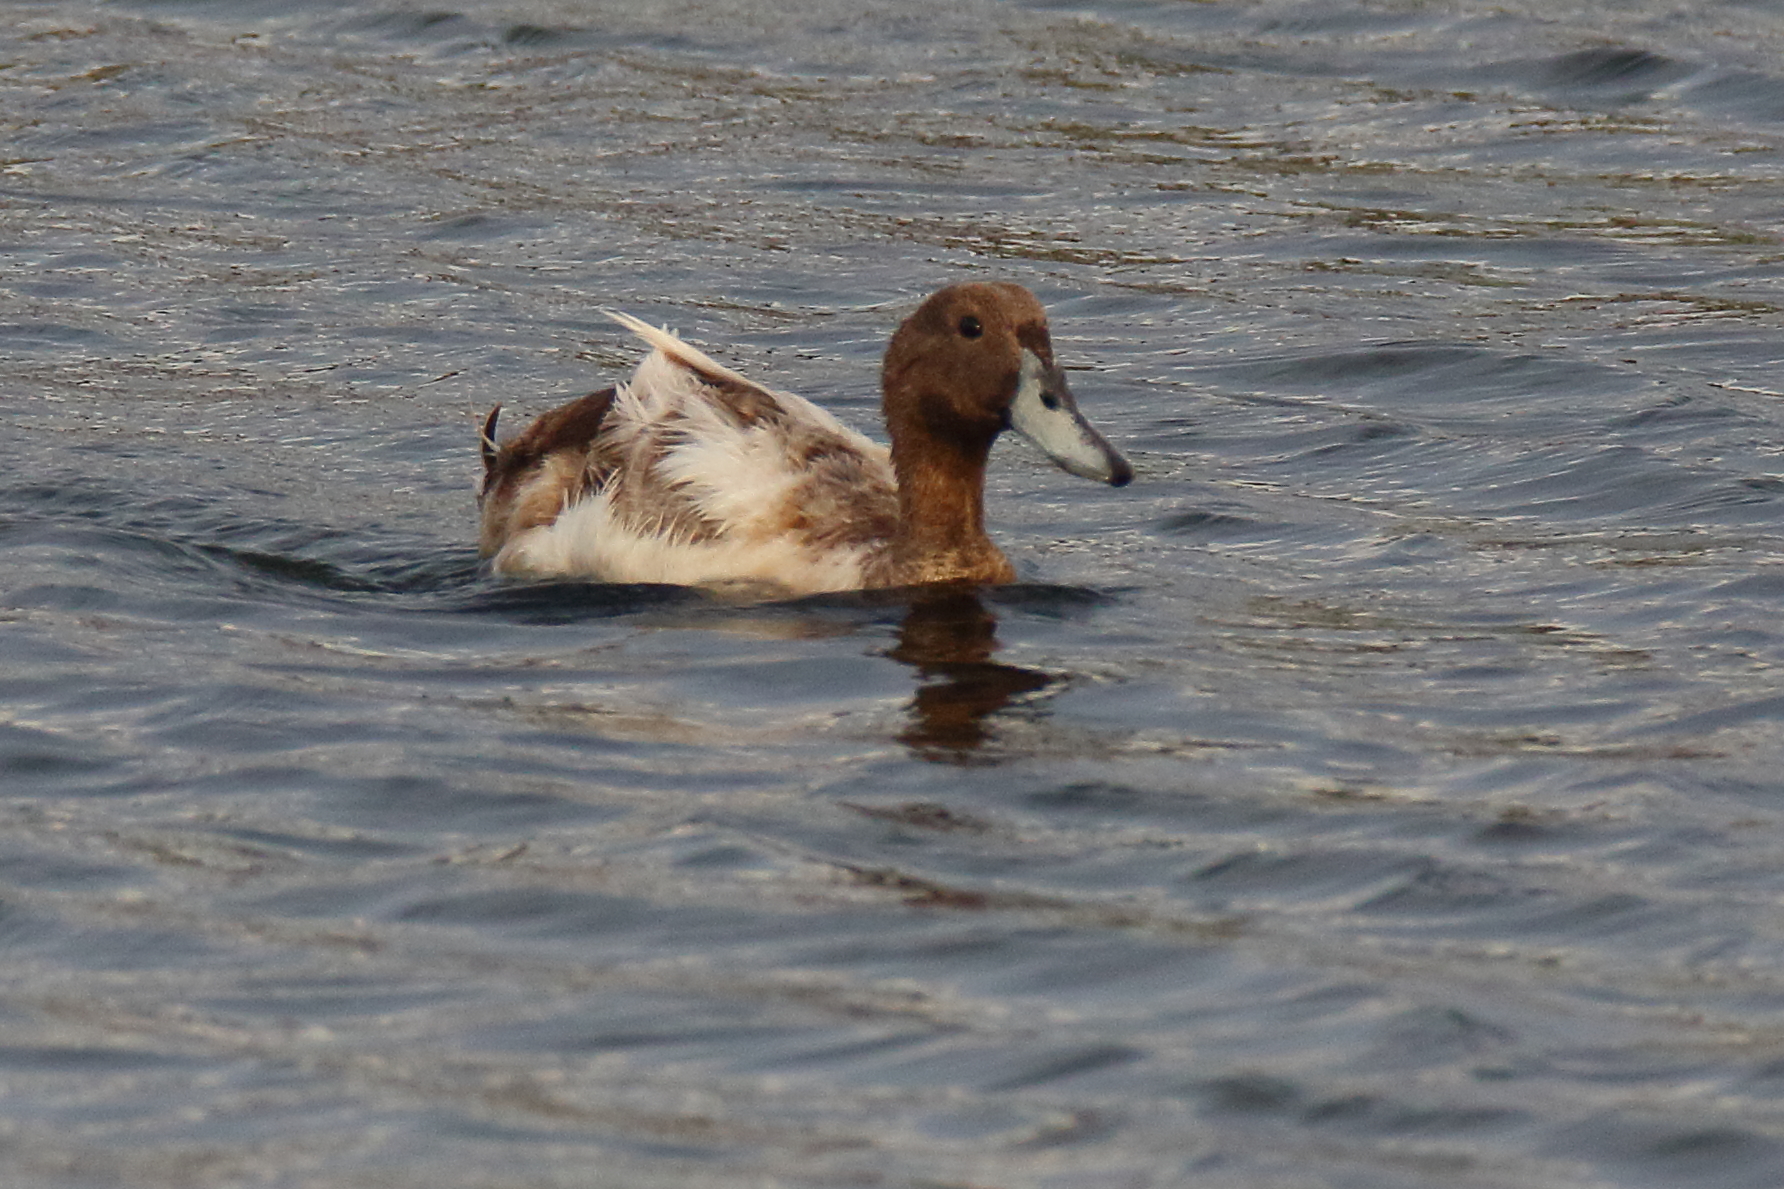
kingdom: Animalia
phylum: Chordata
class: Aves
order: Anseriformes
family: Anatidae
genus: Anas
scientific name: Anas platyrhynchos
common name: Mallard
